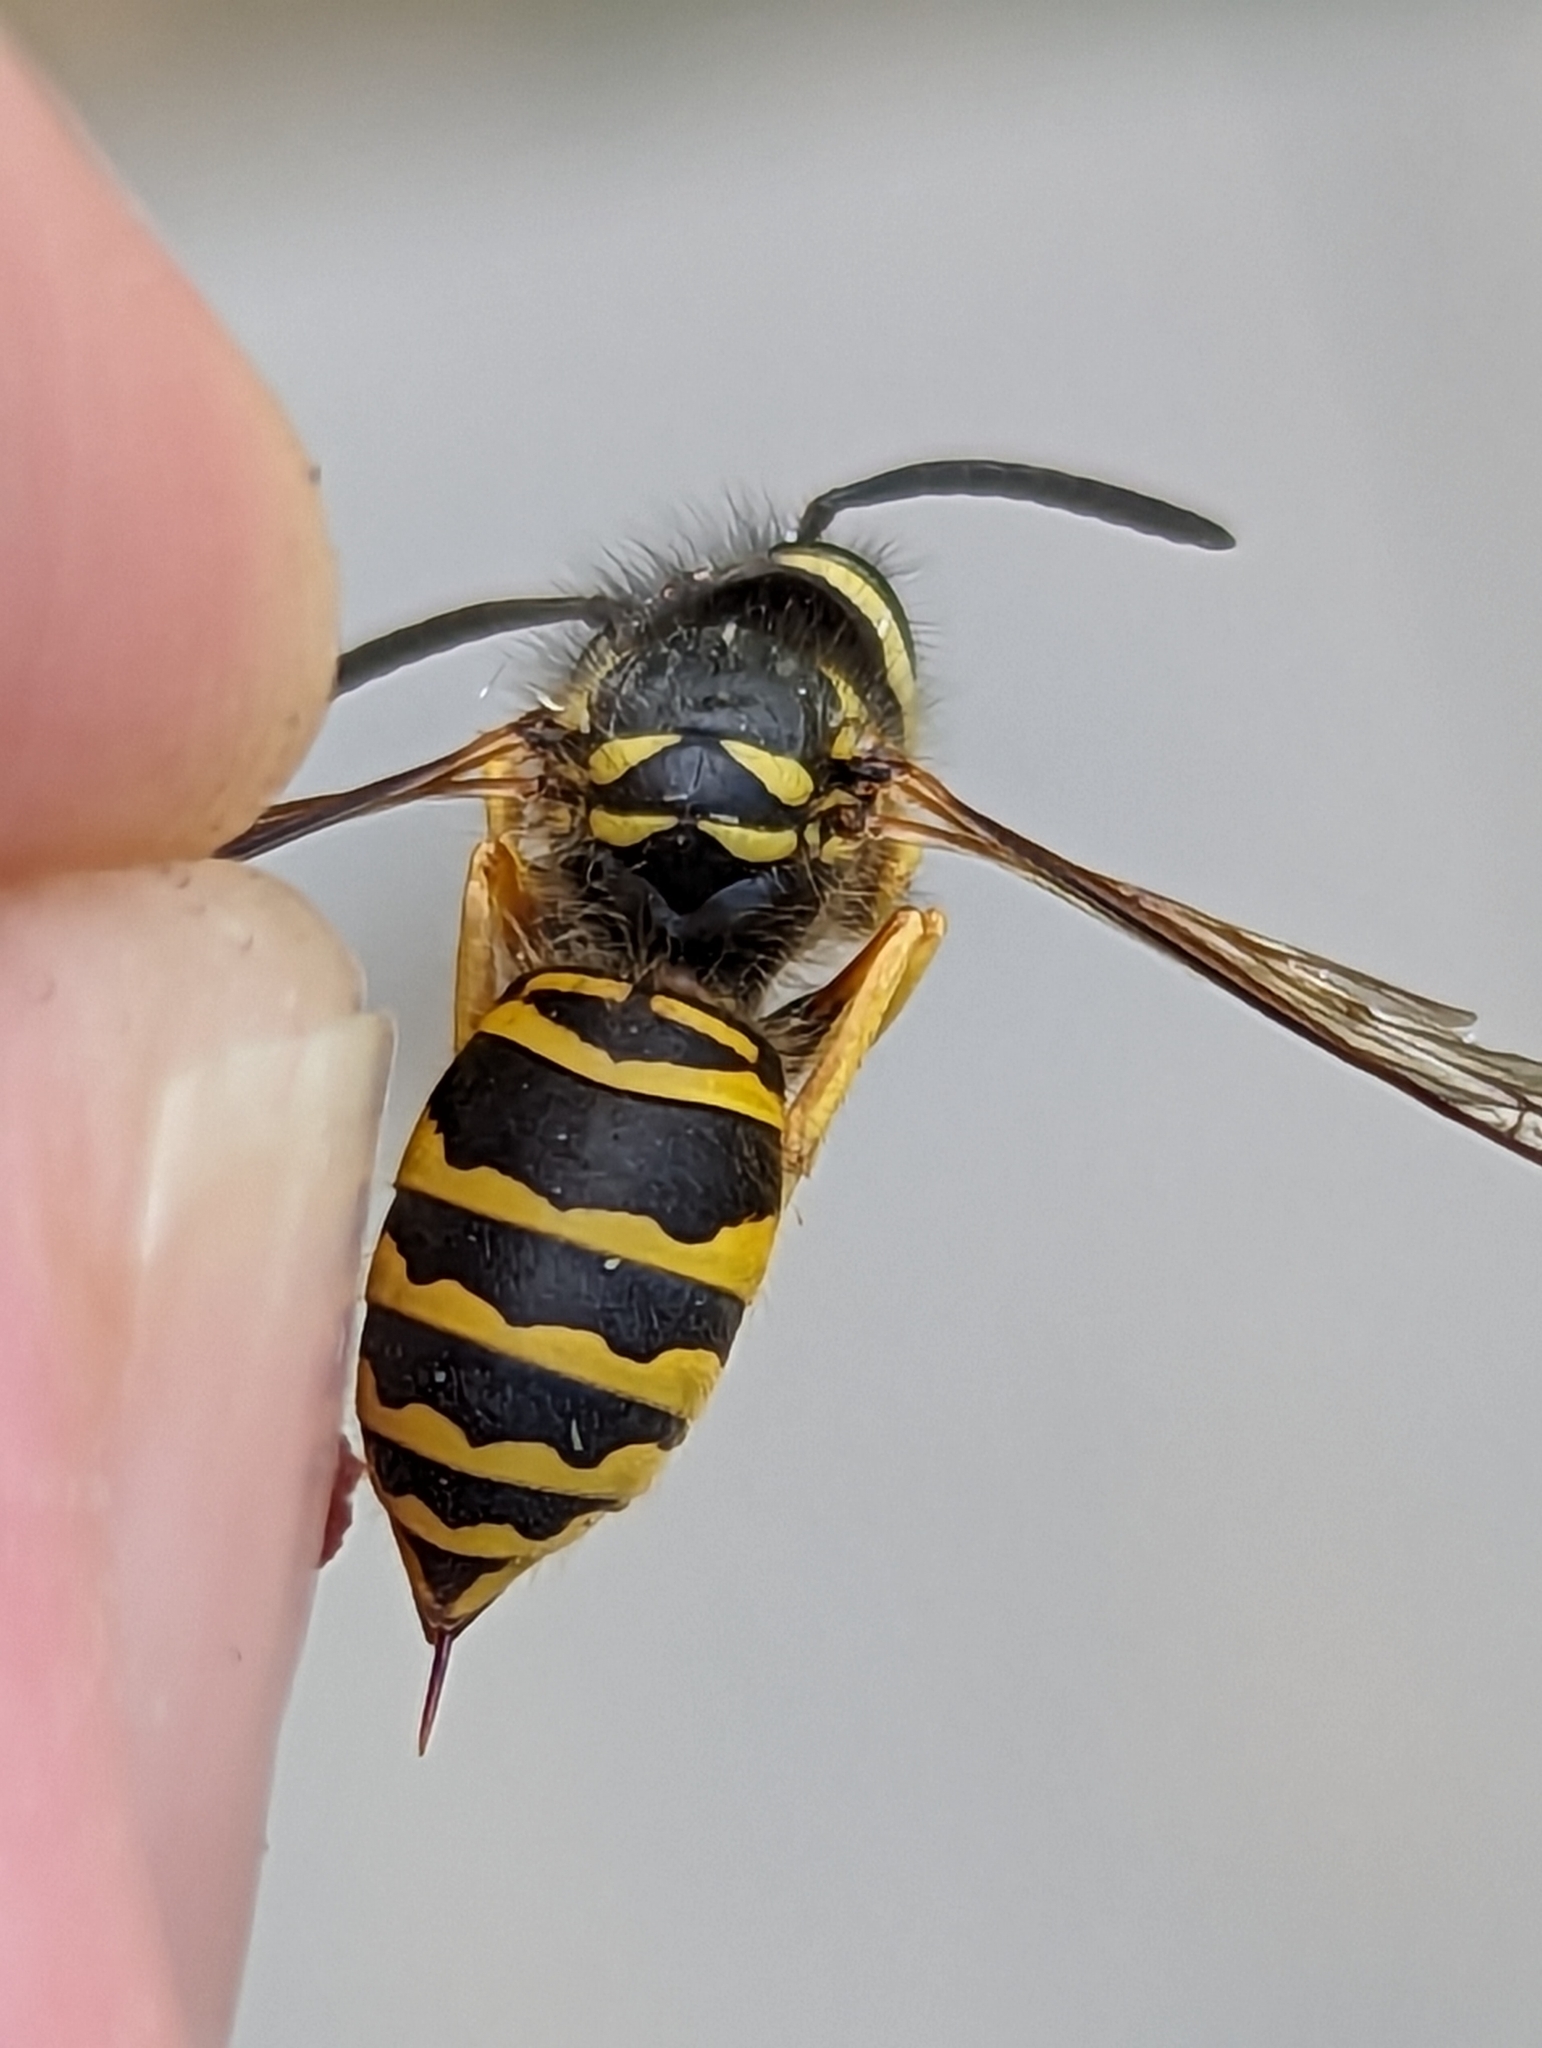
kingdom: Animalia
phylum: Arthropoda
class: Insecta
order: Hymenoptera
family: Vespidae
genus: Vespula
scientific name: Vespula maculifrons
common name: Eastern yellowjacket
